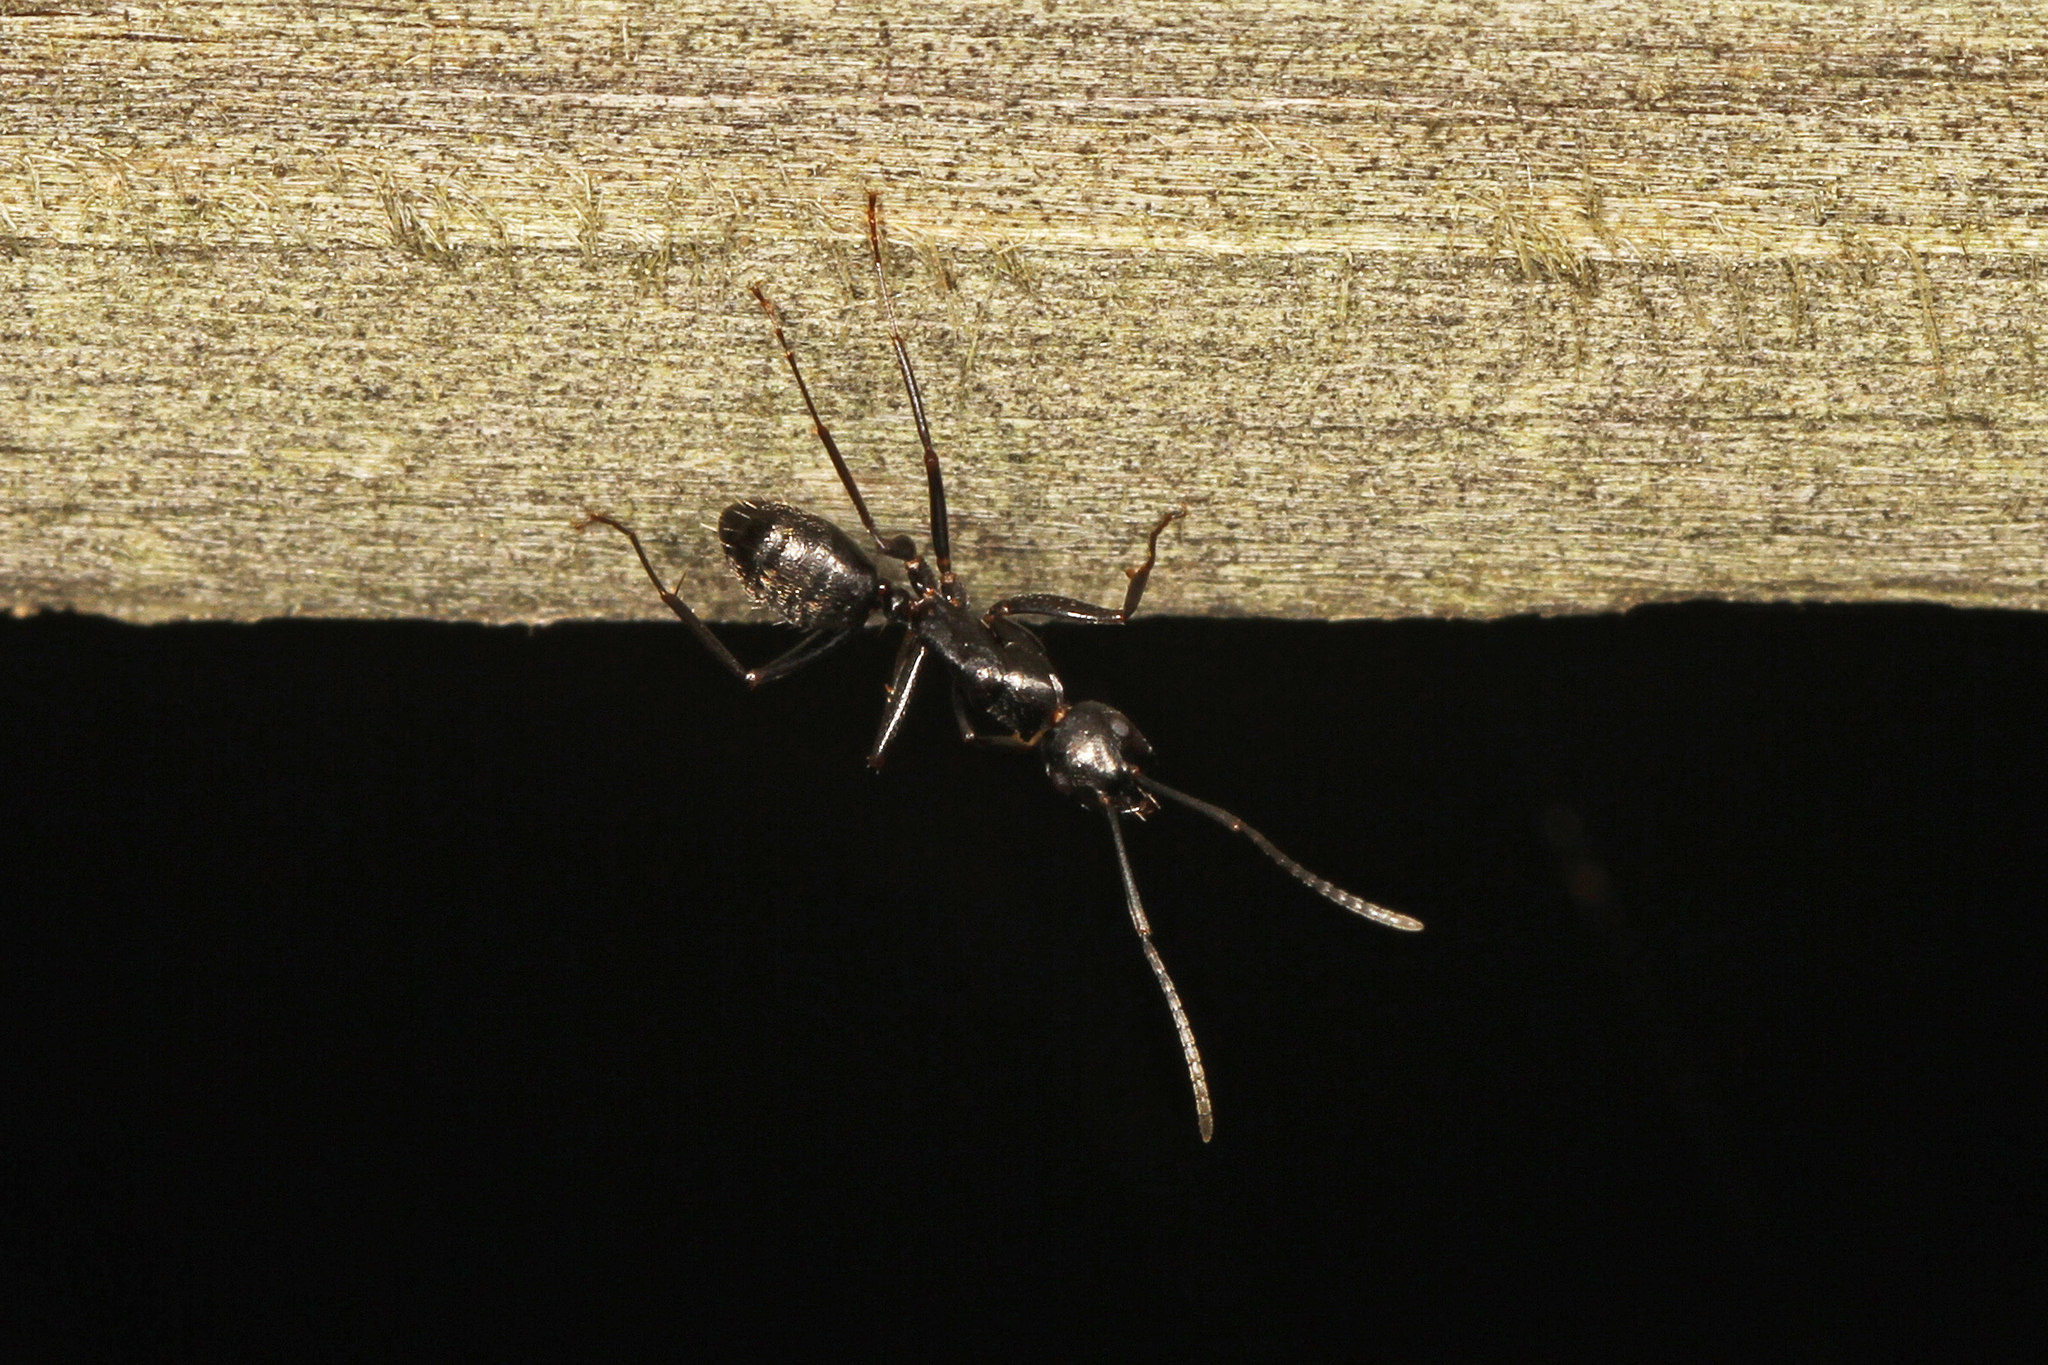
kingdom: Animalia
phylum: Arthropoda
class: Insecta
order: Hymenoptera
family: Formicidae
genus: Camponotus
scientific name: Camponotus pennsylvanicus
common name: Black carpenter ant
